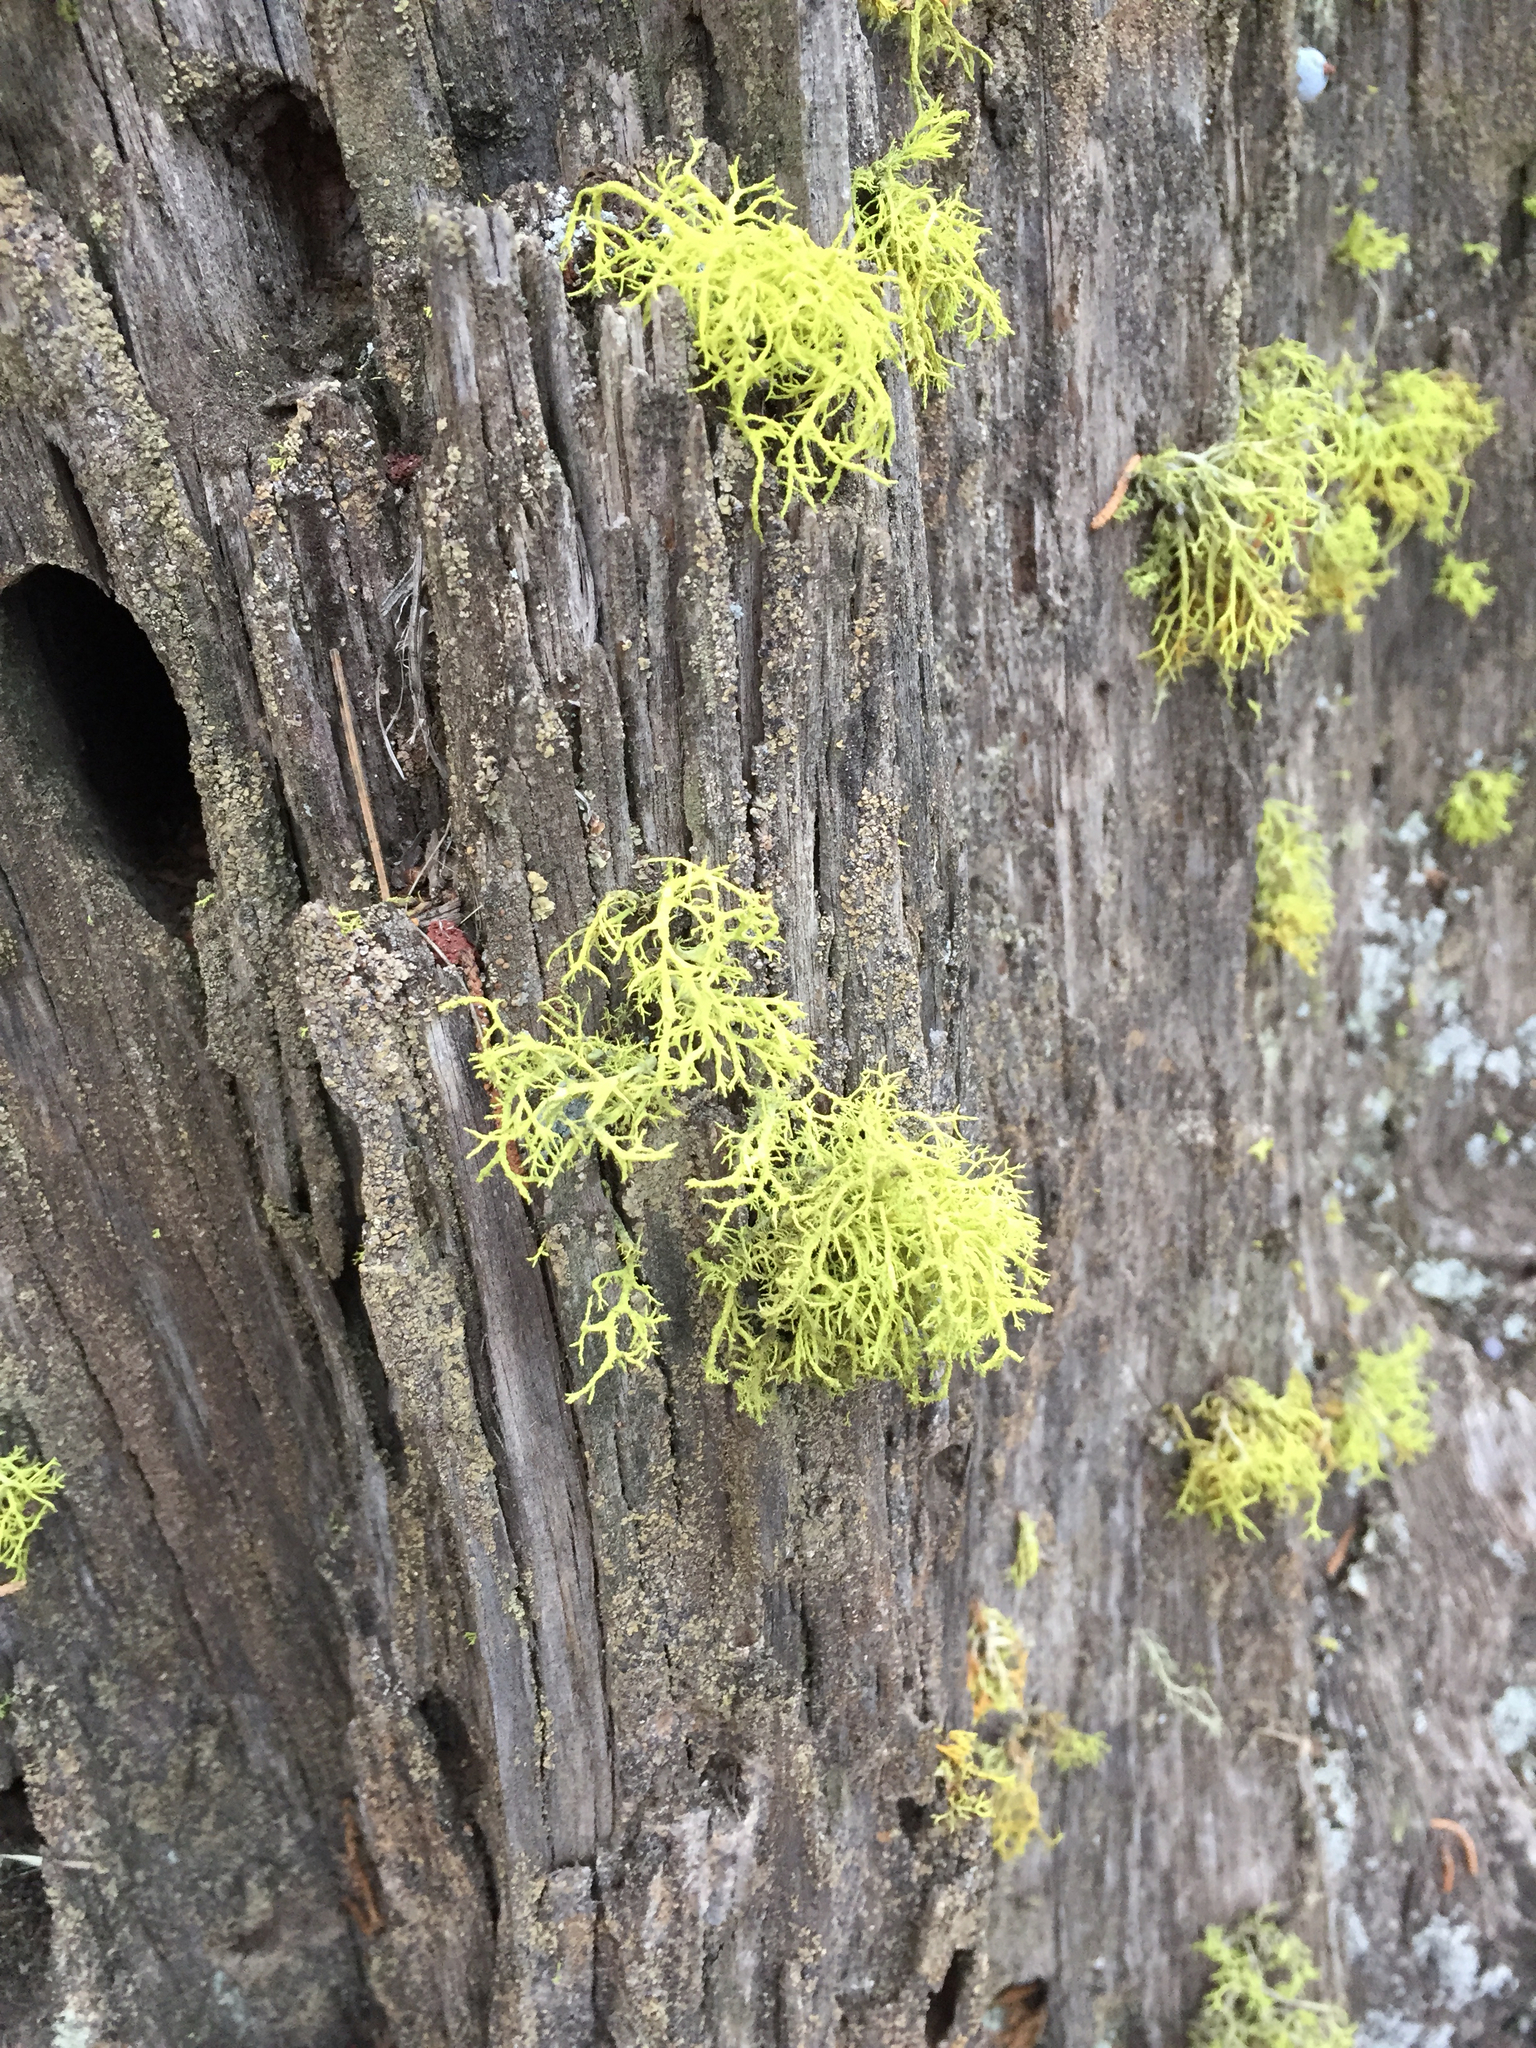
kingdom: Fungi
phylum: Ascomycota
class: Lecanoromycetes
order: Lecanorales
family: Parmeliaceae
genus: Letharia
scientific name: Letharia vulpina
